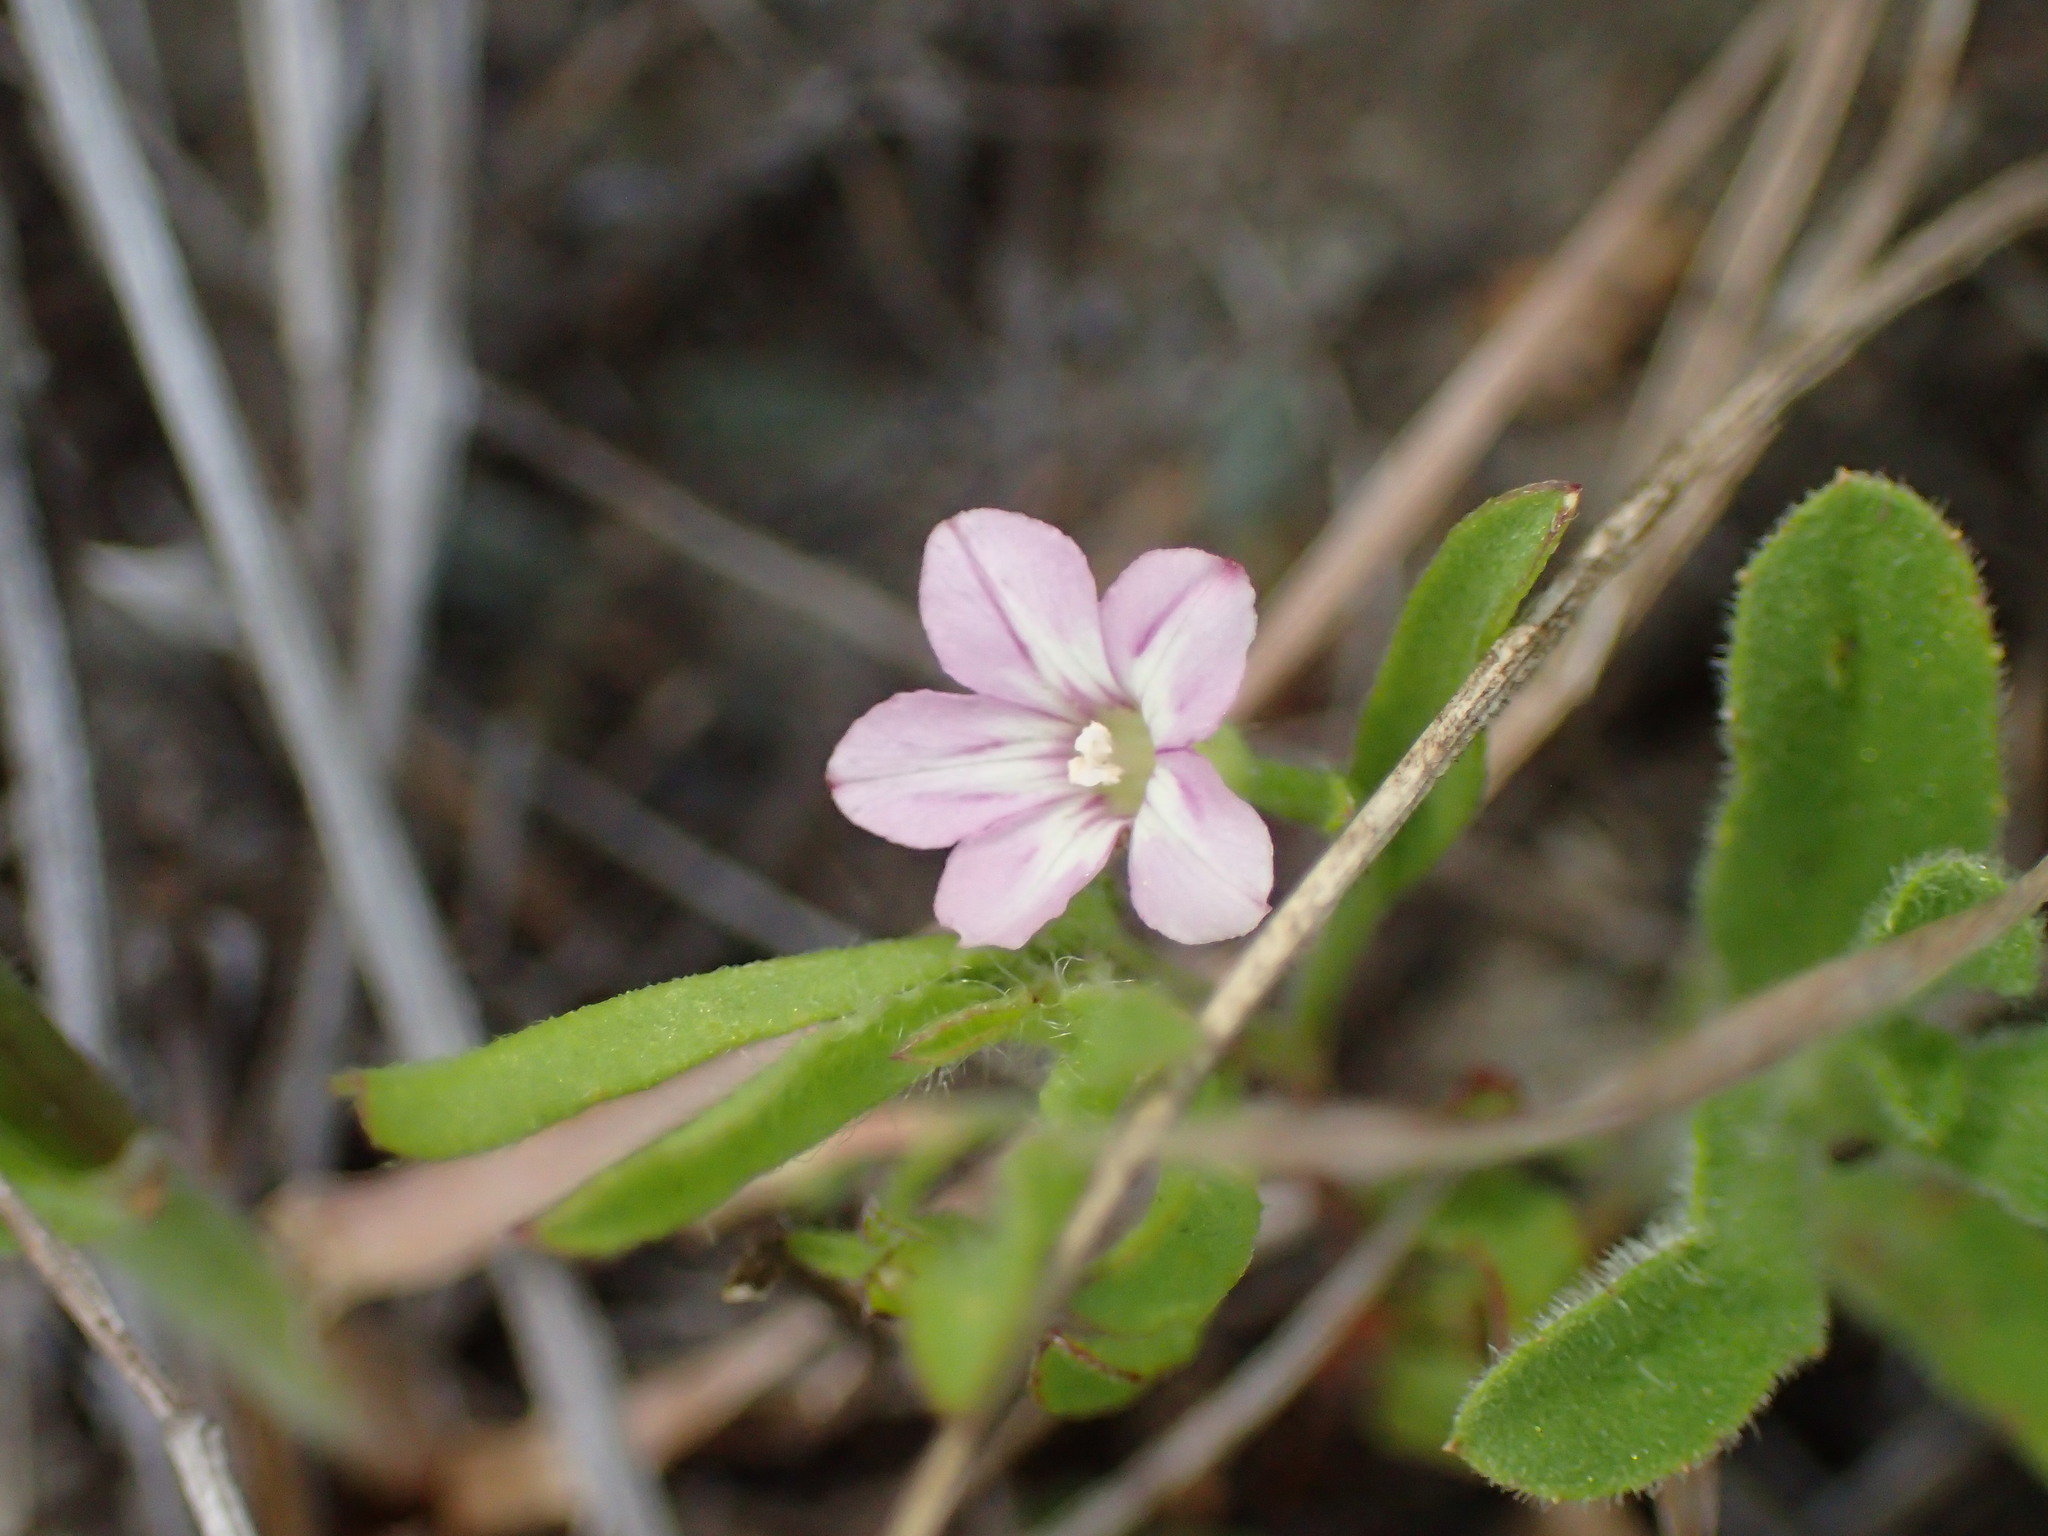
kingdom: Plantae
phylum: Tracheophyta
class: Magnoliopsida
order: Solanales
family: Convolvulaceae
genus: Convolvulus
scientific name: Convolvulus simulans
